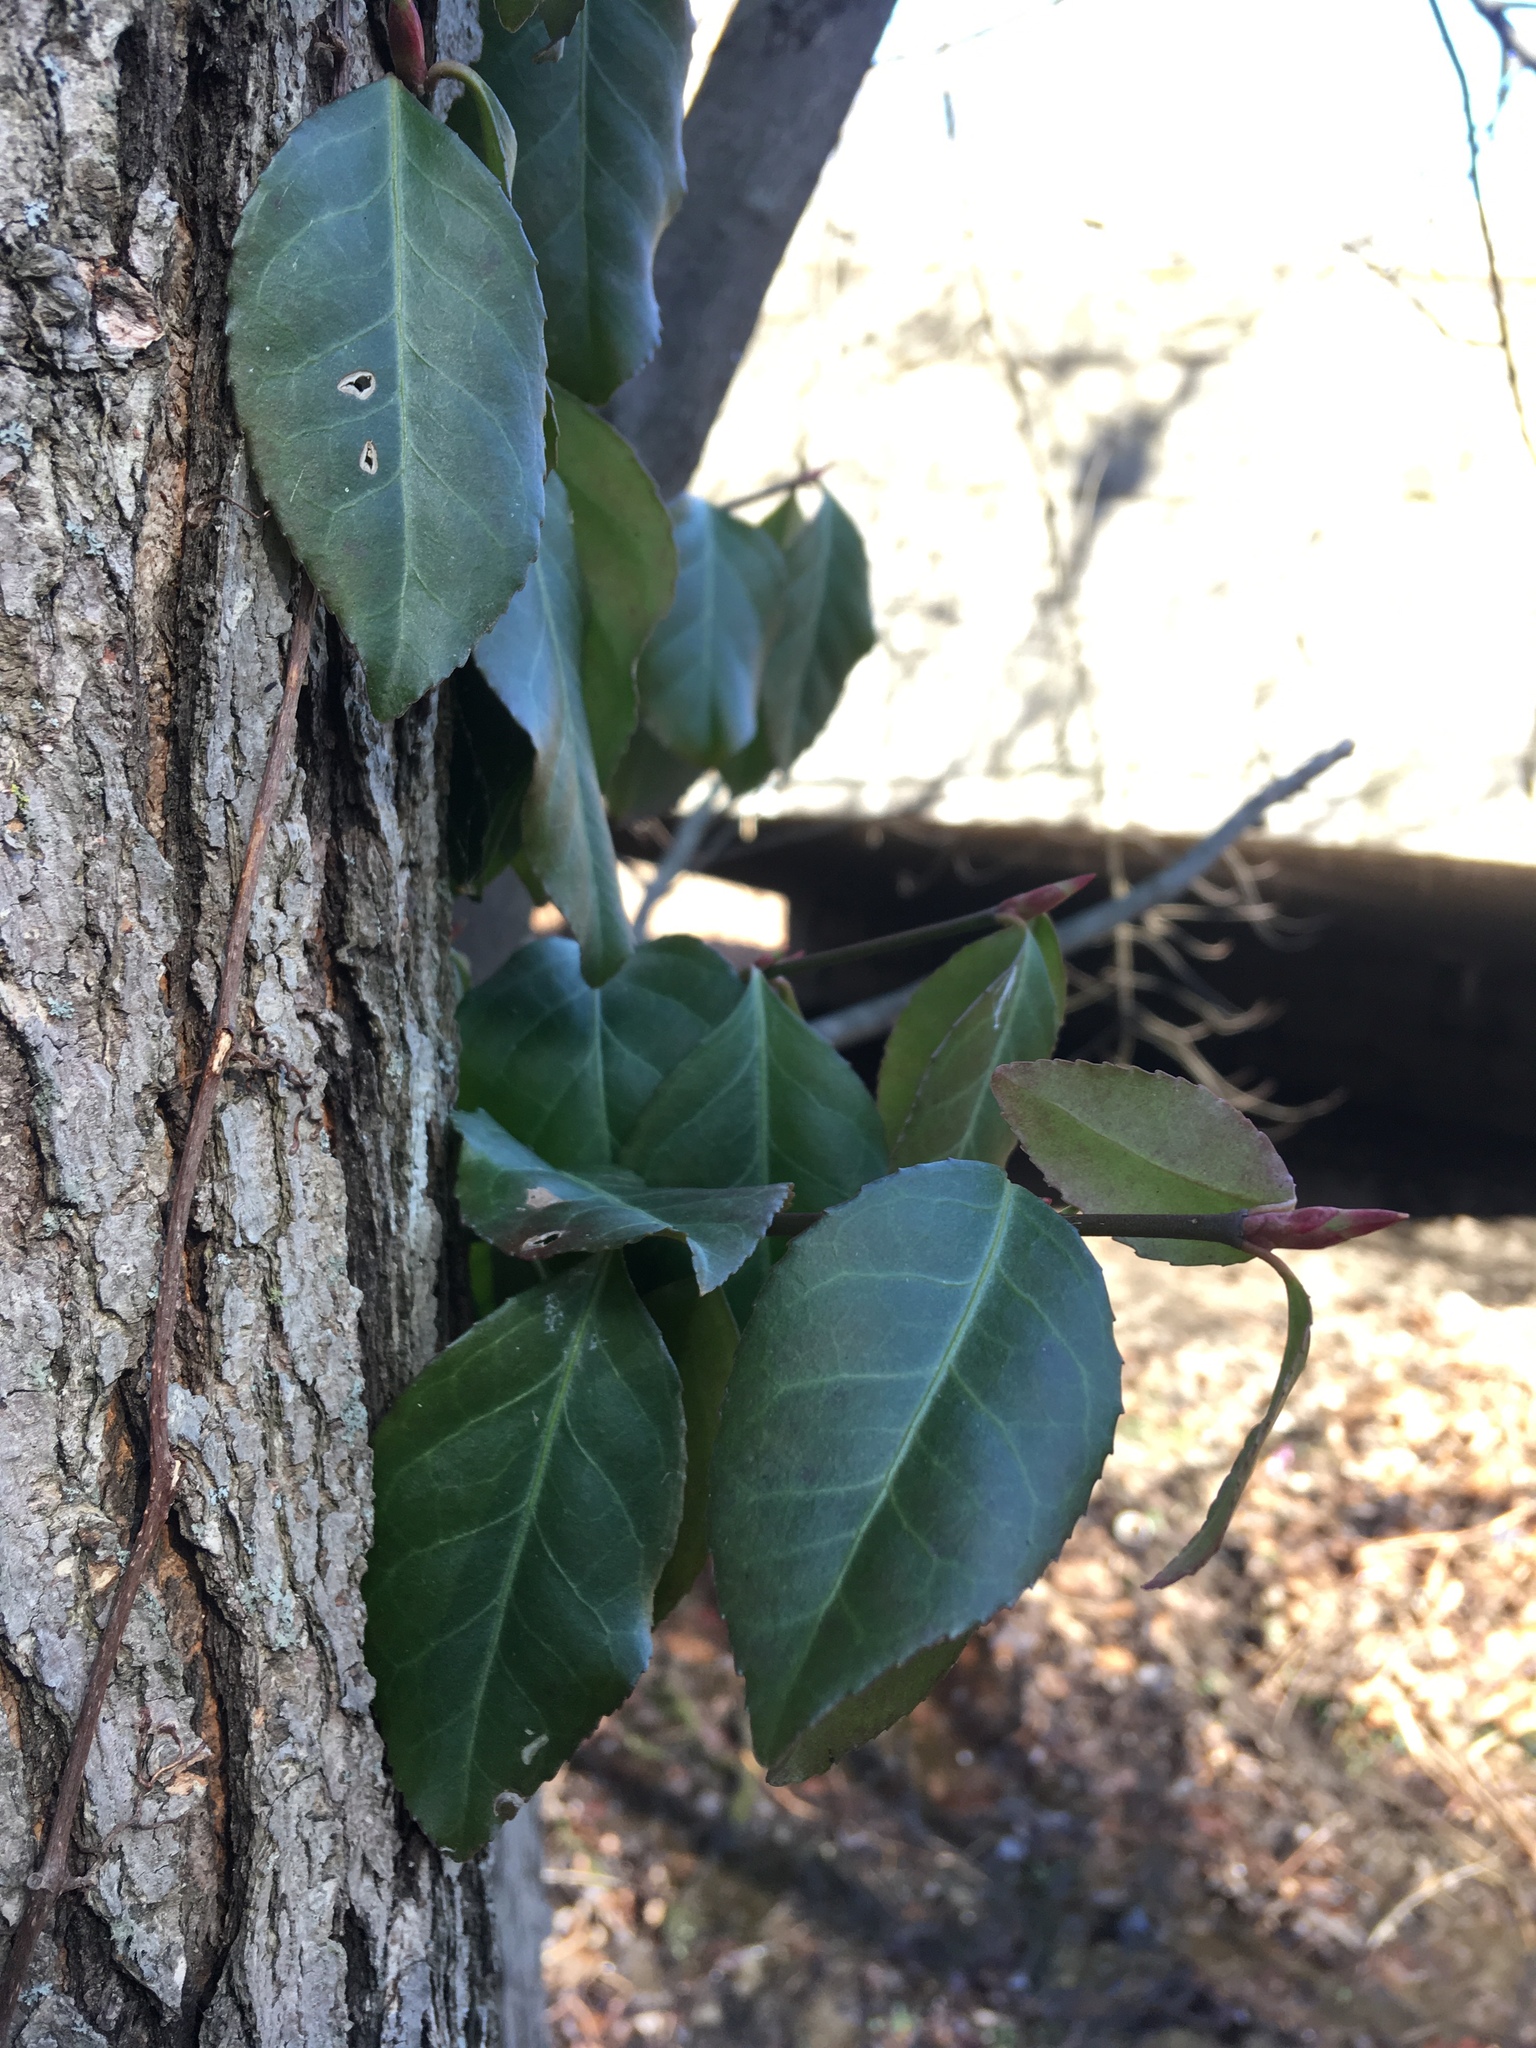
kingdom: Plantae
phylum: Tracheophyta
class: Magnoliopsida
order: Celastrales
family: Celastraceae
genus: Euonymus
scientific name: Euonymus fortunei
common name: Climbing euonymus
